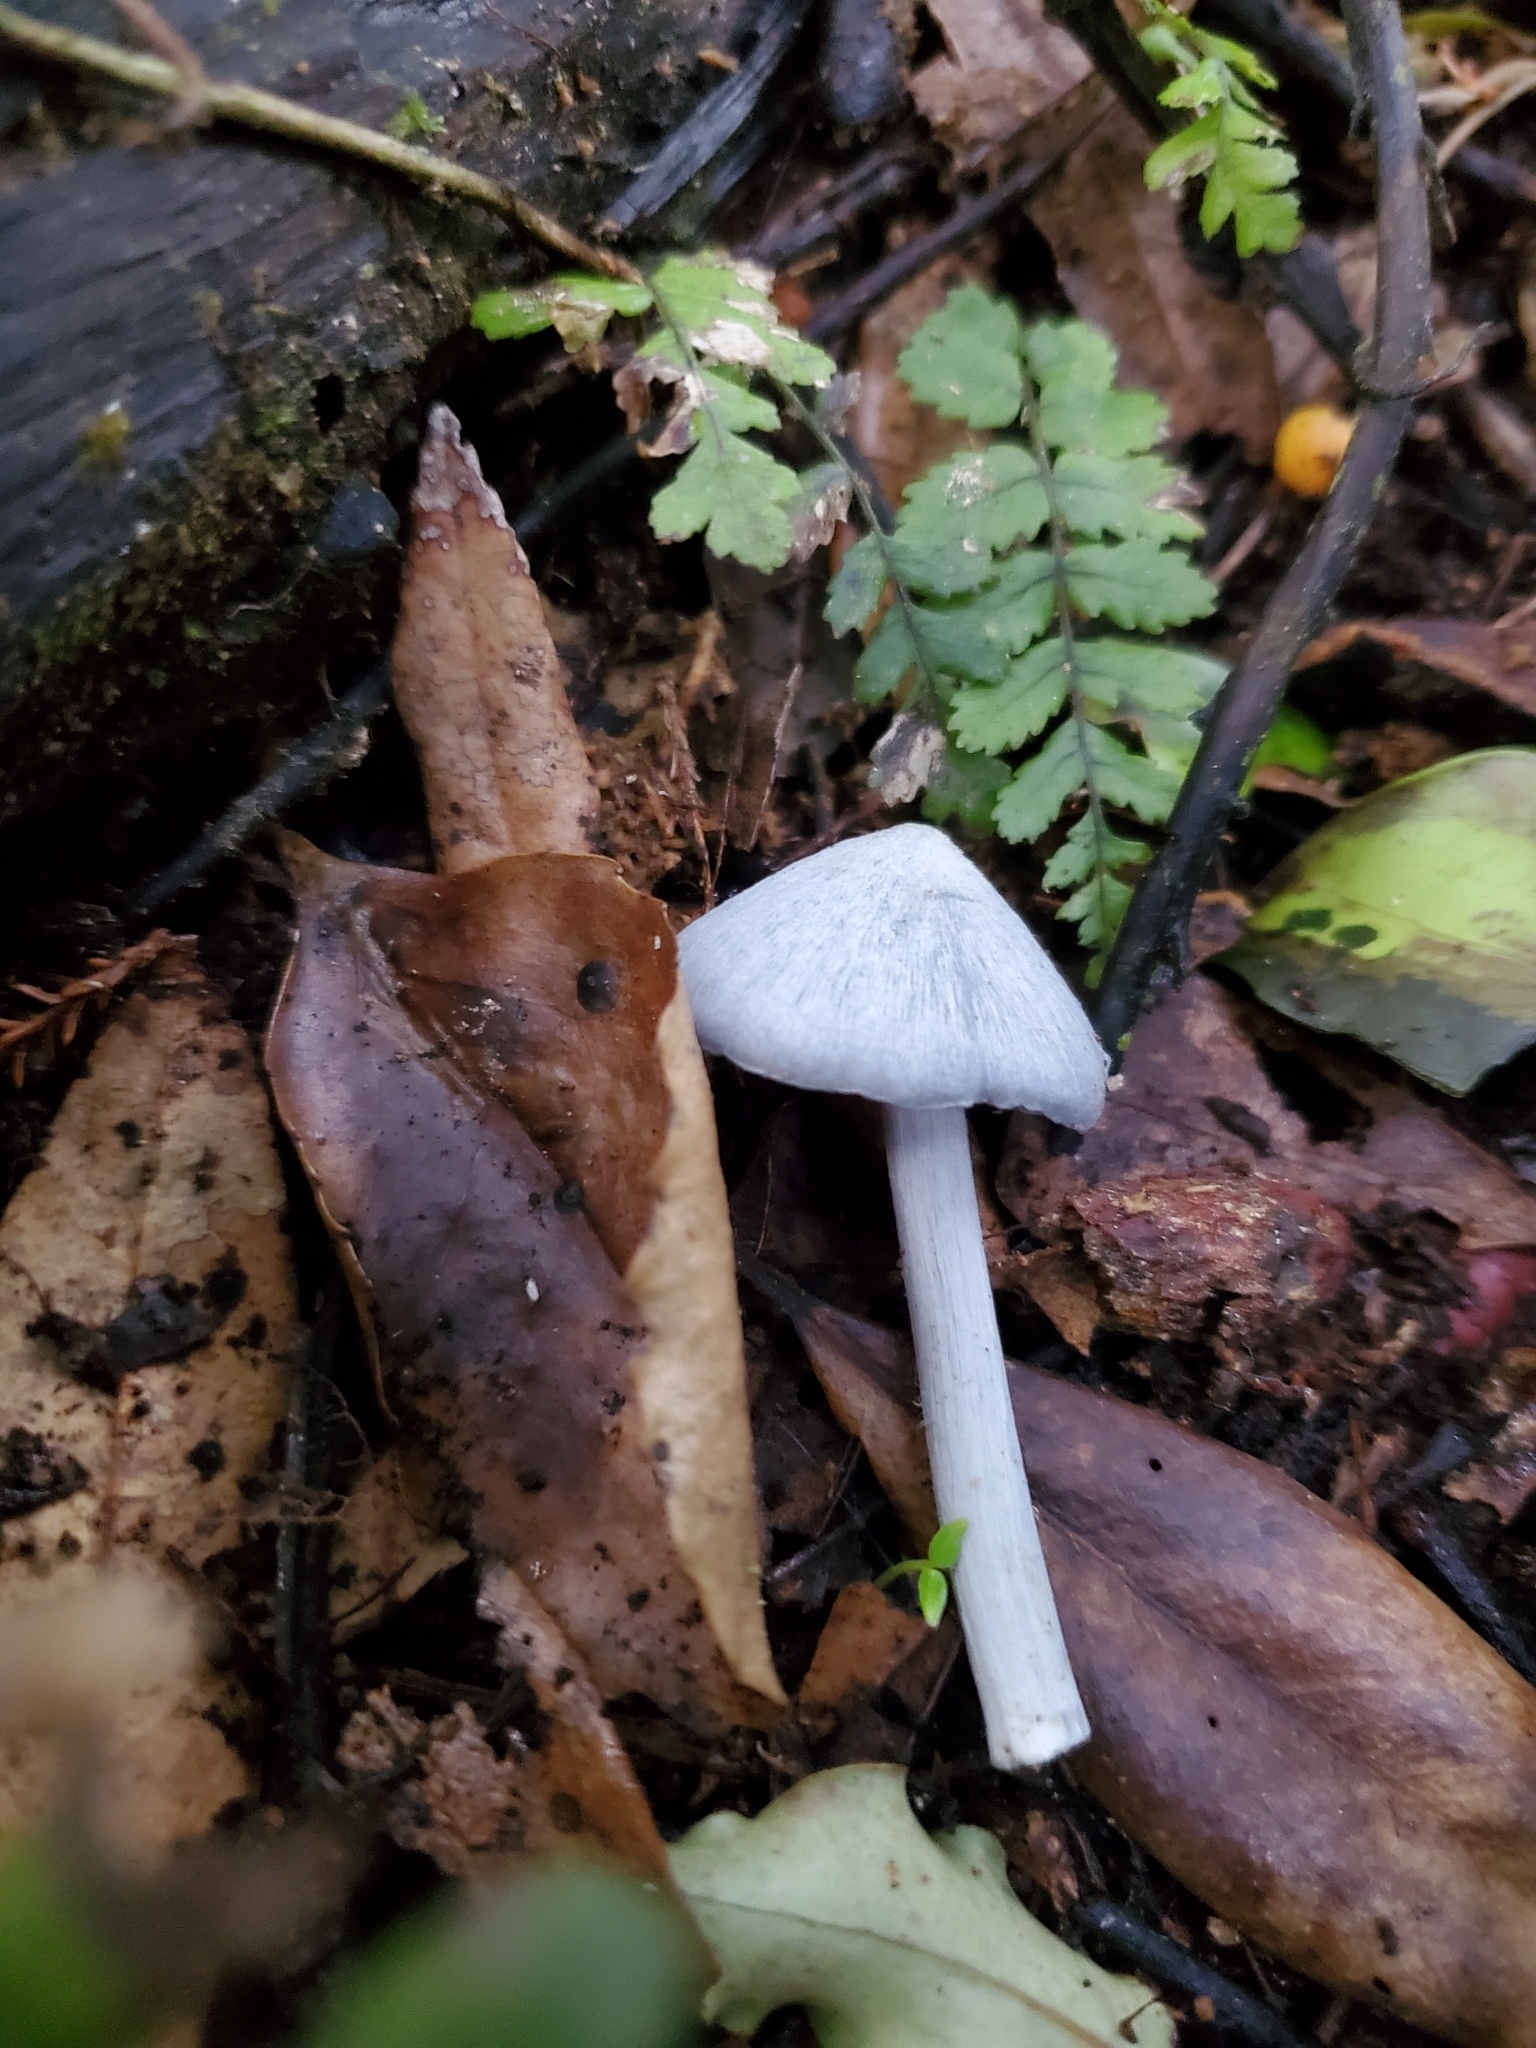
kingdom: Fungi
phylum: Basidiomycota
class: Agaricomycetes
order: Agaricales
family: Entolomataceae
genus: Entoloma
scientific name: Entoloma hochstetteri
